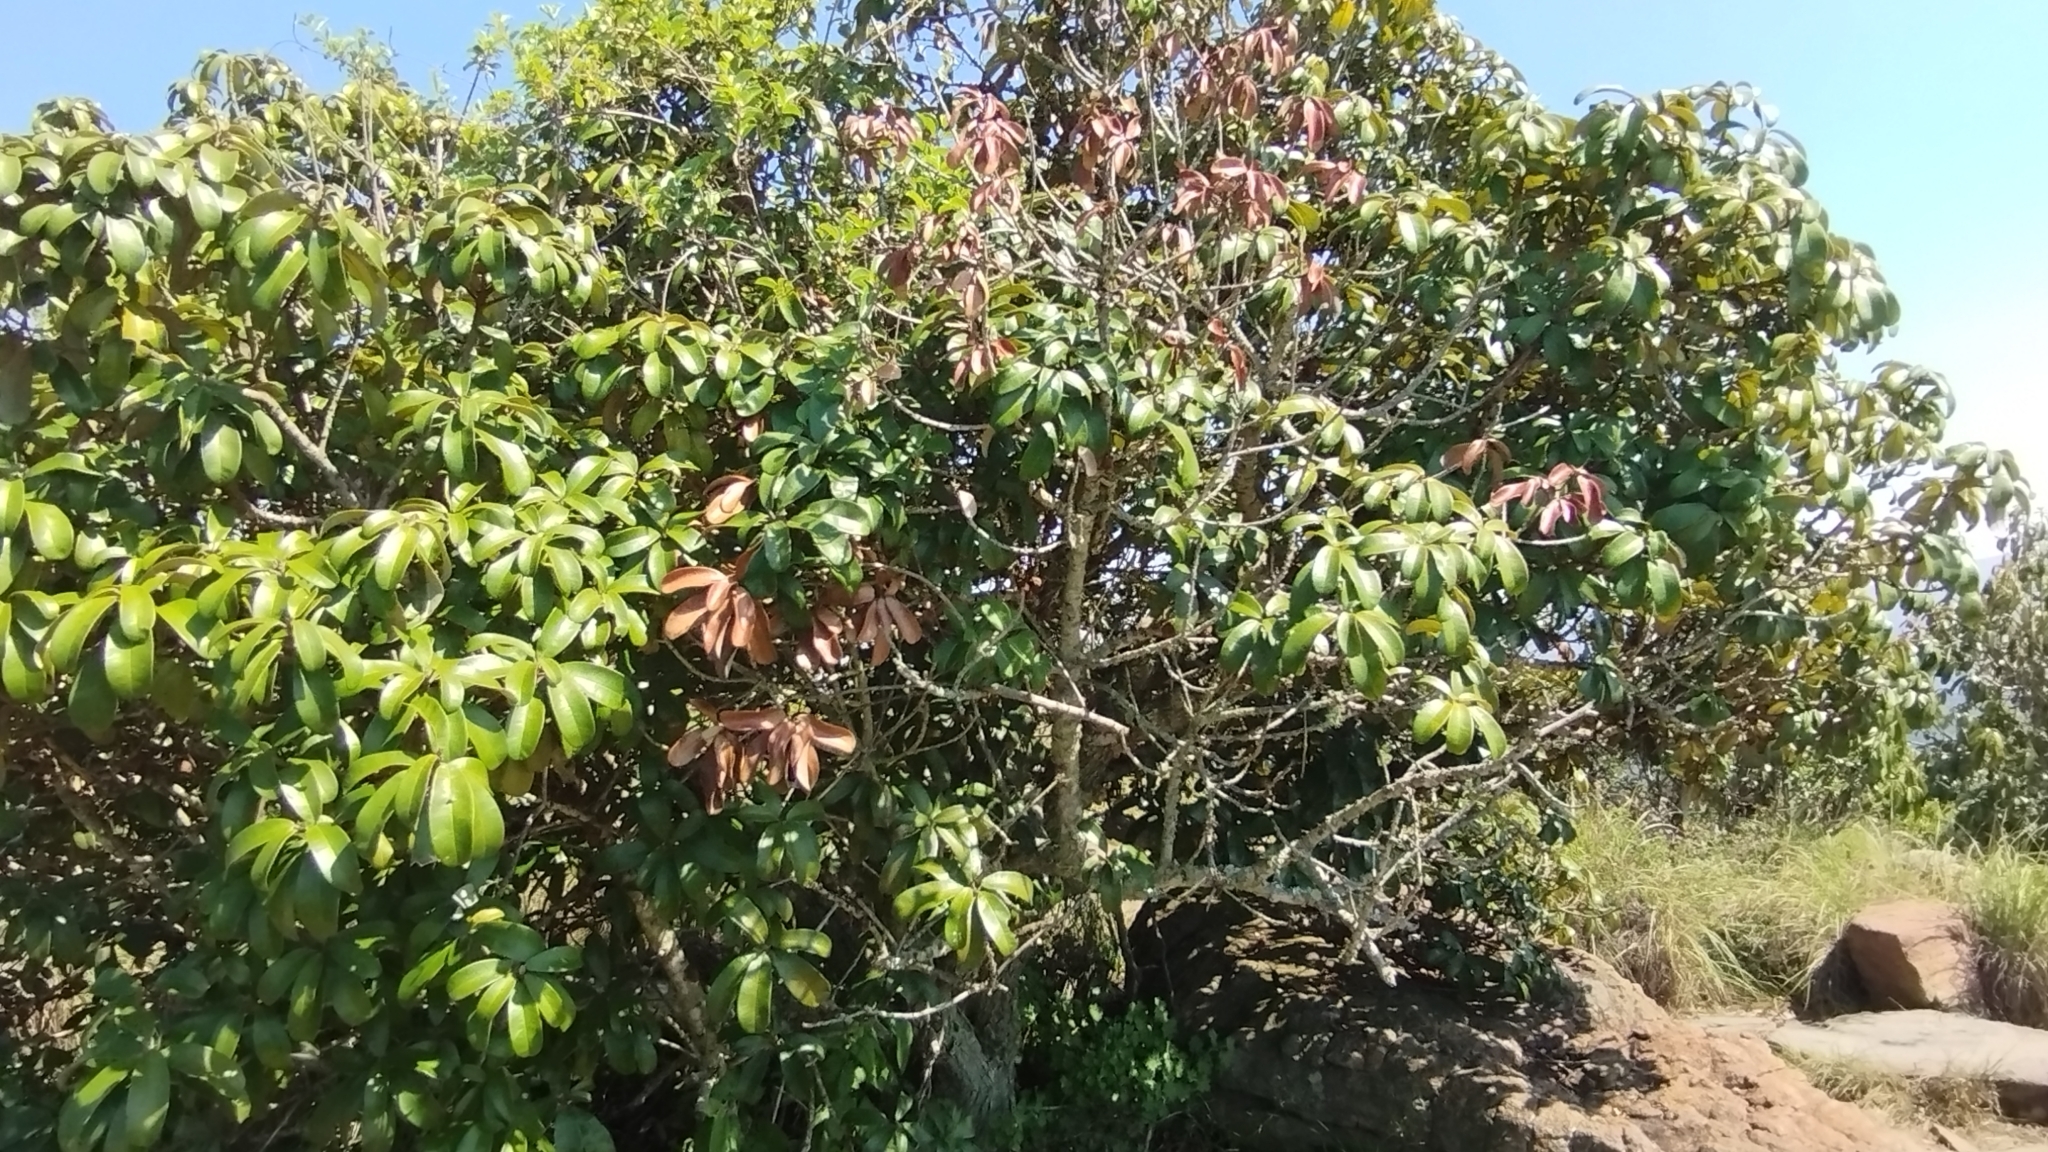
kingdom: Plantae
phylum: Tracheophyta
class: Magnoliopsida
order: Ericales
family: Sapotaceae
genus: Englerophytum
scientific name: Englerophytum magalismontanum
